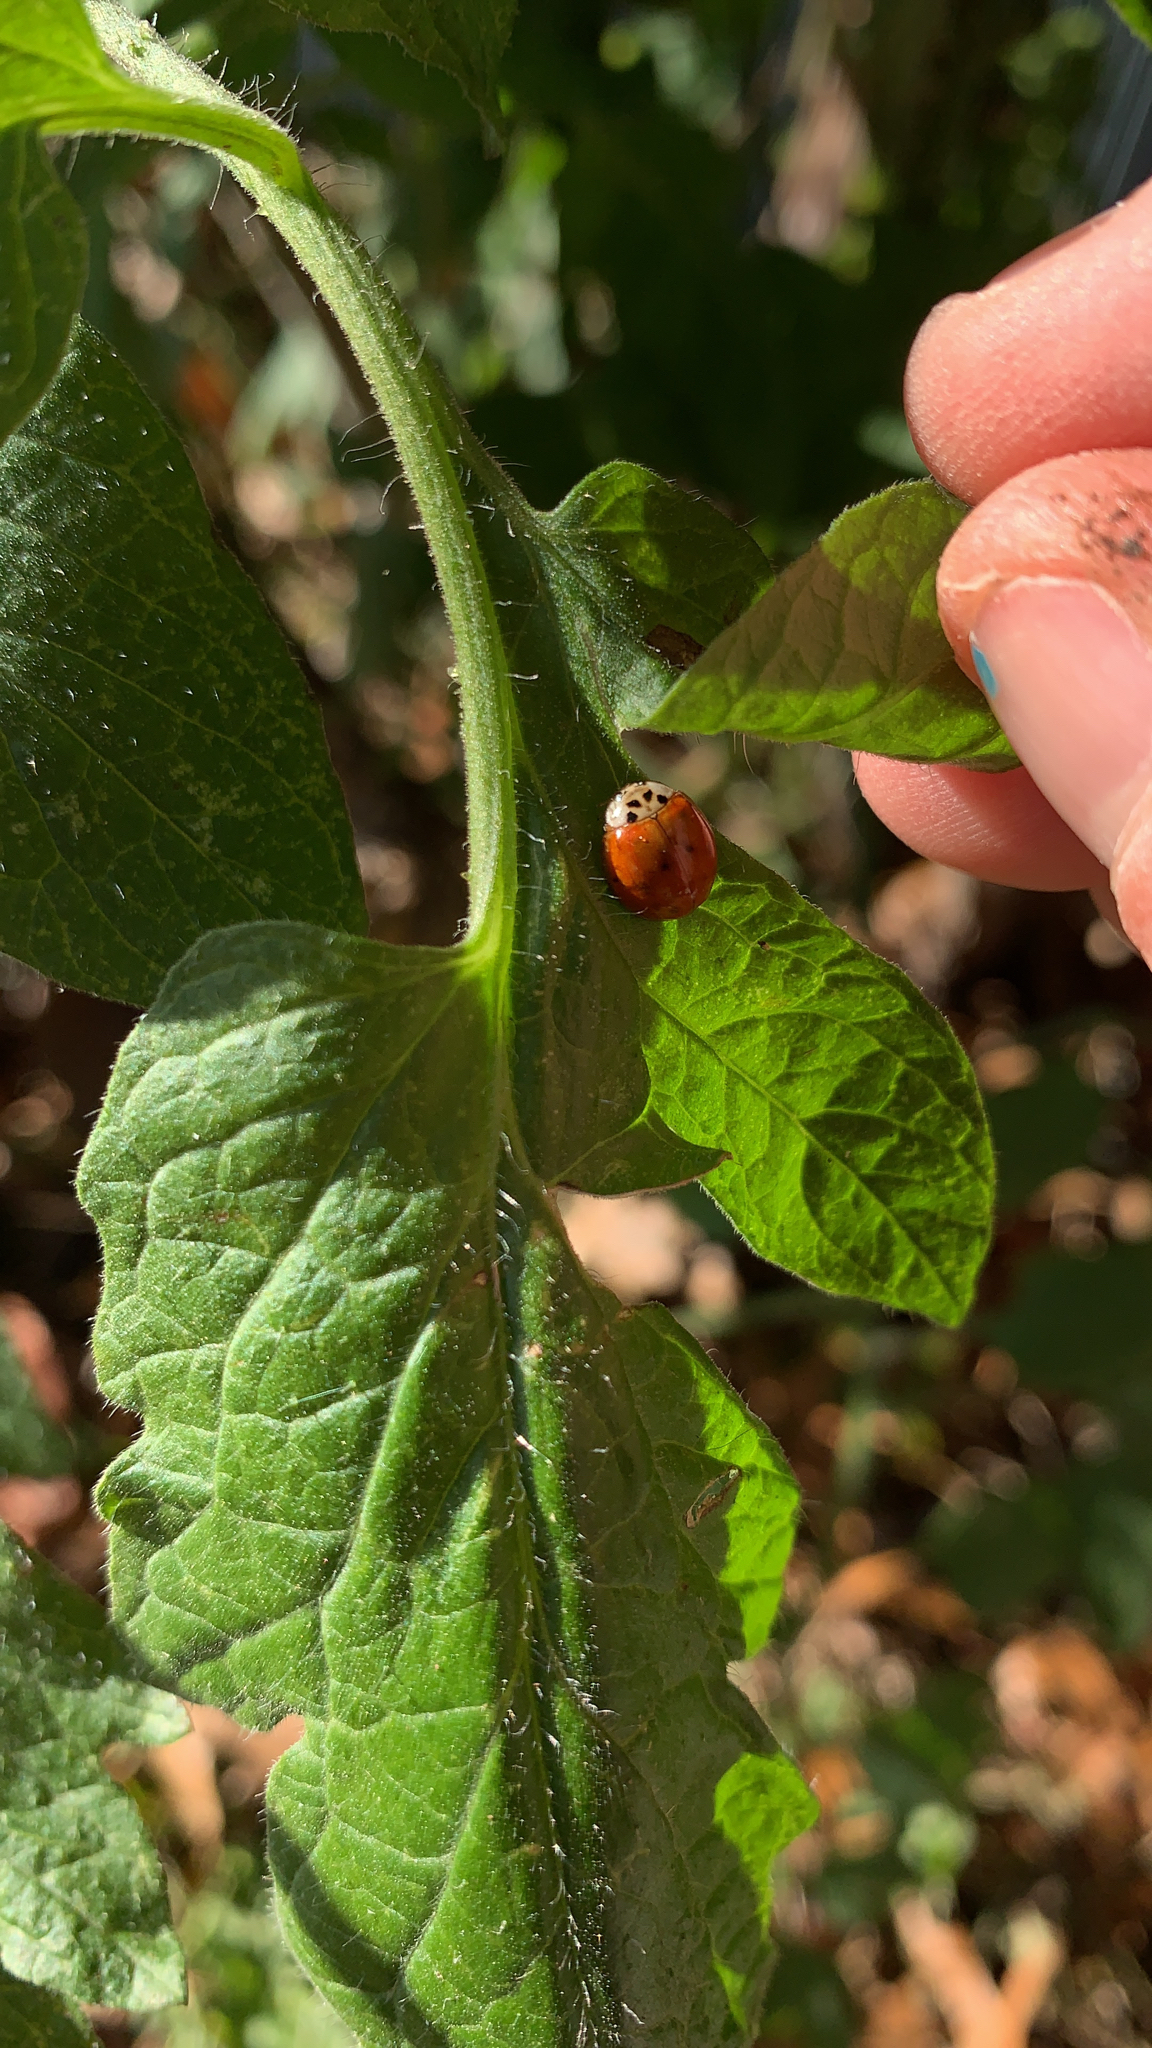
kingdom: Animalia
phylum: Arthropoda
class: Insecta
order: Coleoptera
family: Coccinellidae
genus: Harmonia
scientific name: Harmonia axyridis
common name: Harlequin ladybird
